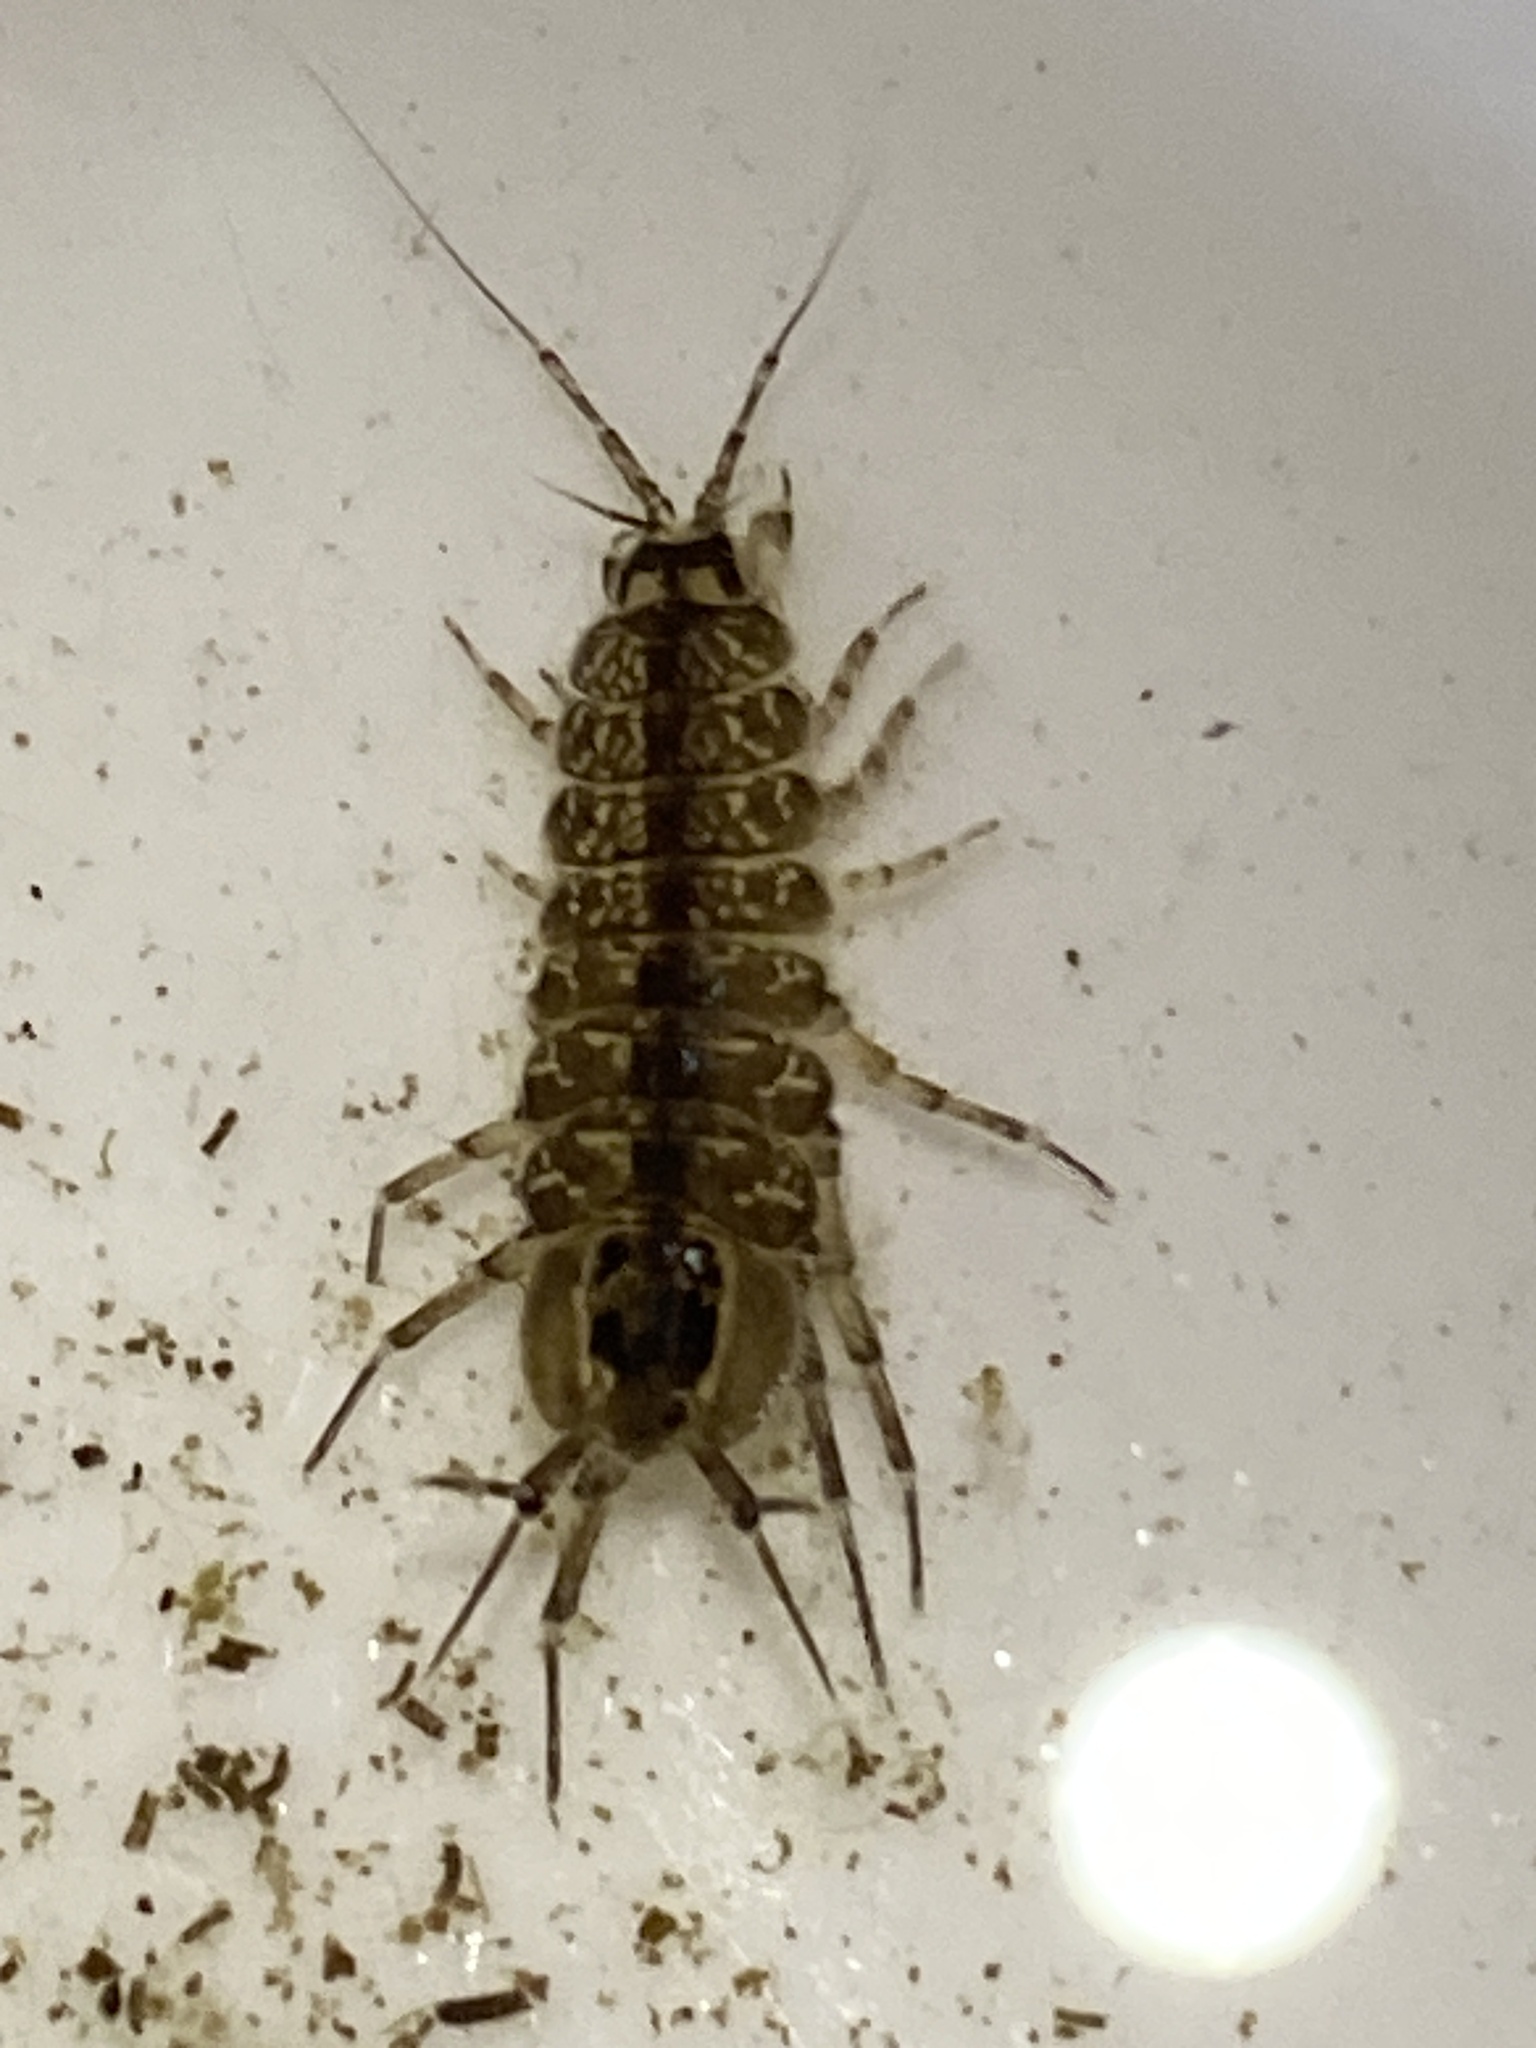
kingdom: Animalia
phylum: Arthropoda
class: Malacostraca
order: Isopoda
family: Asellidae
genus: Asellus
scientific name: Asellus aquaticus
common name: Water hog lice/slaters
